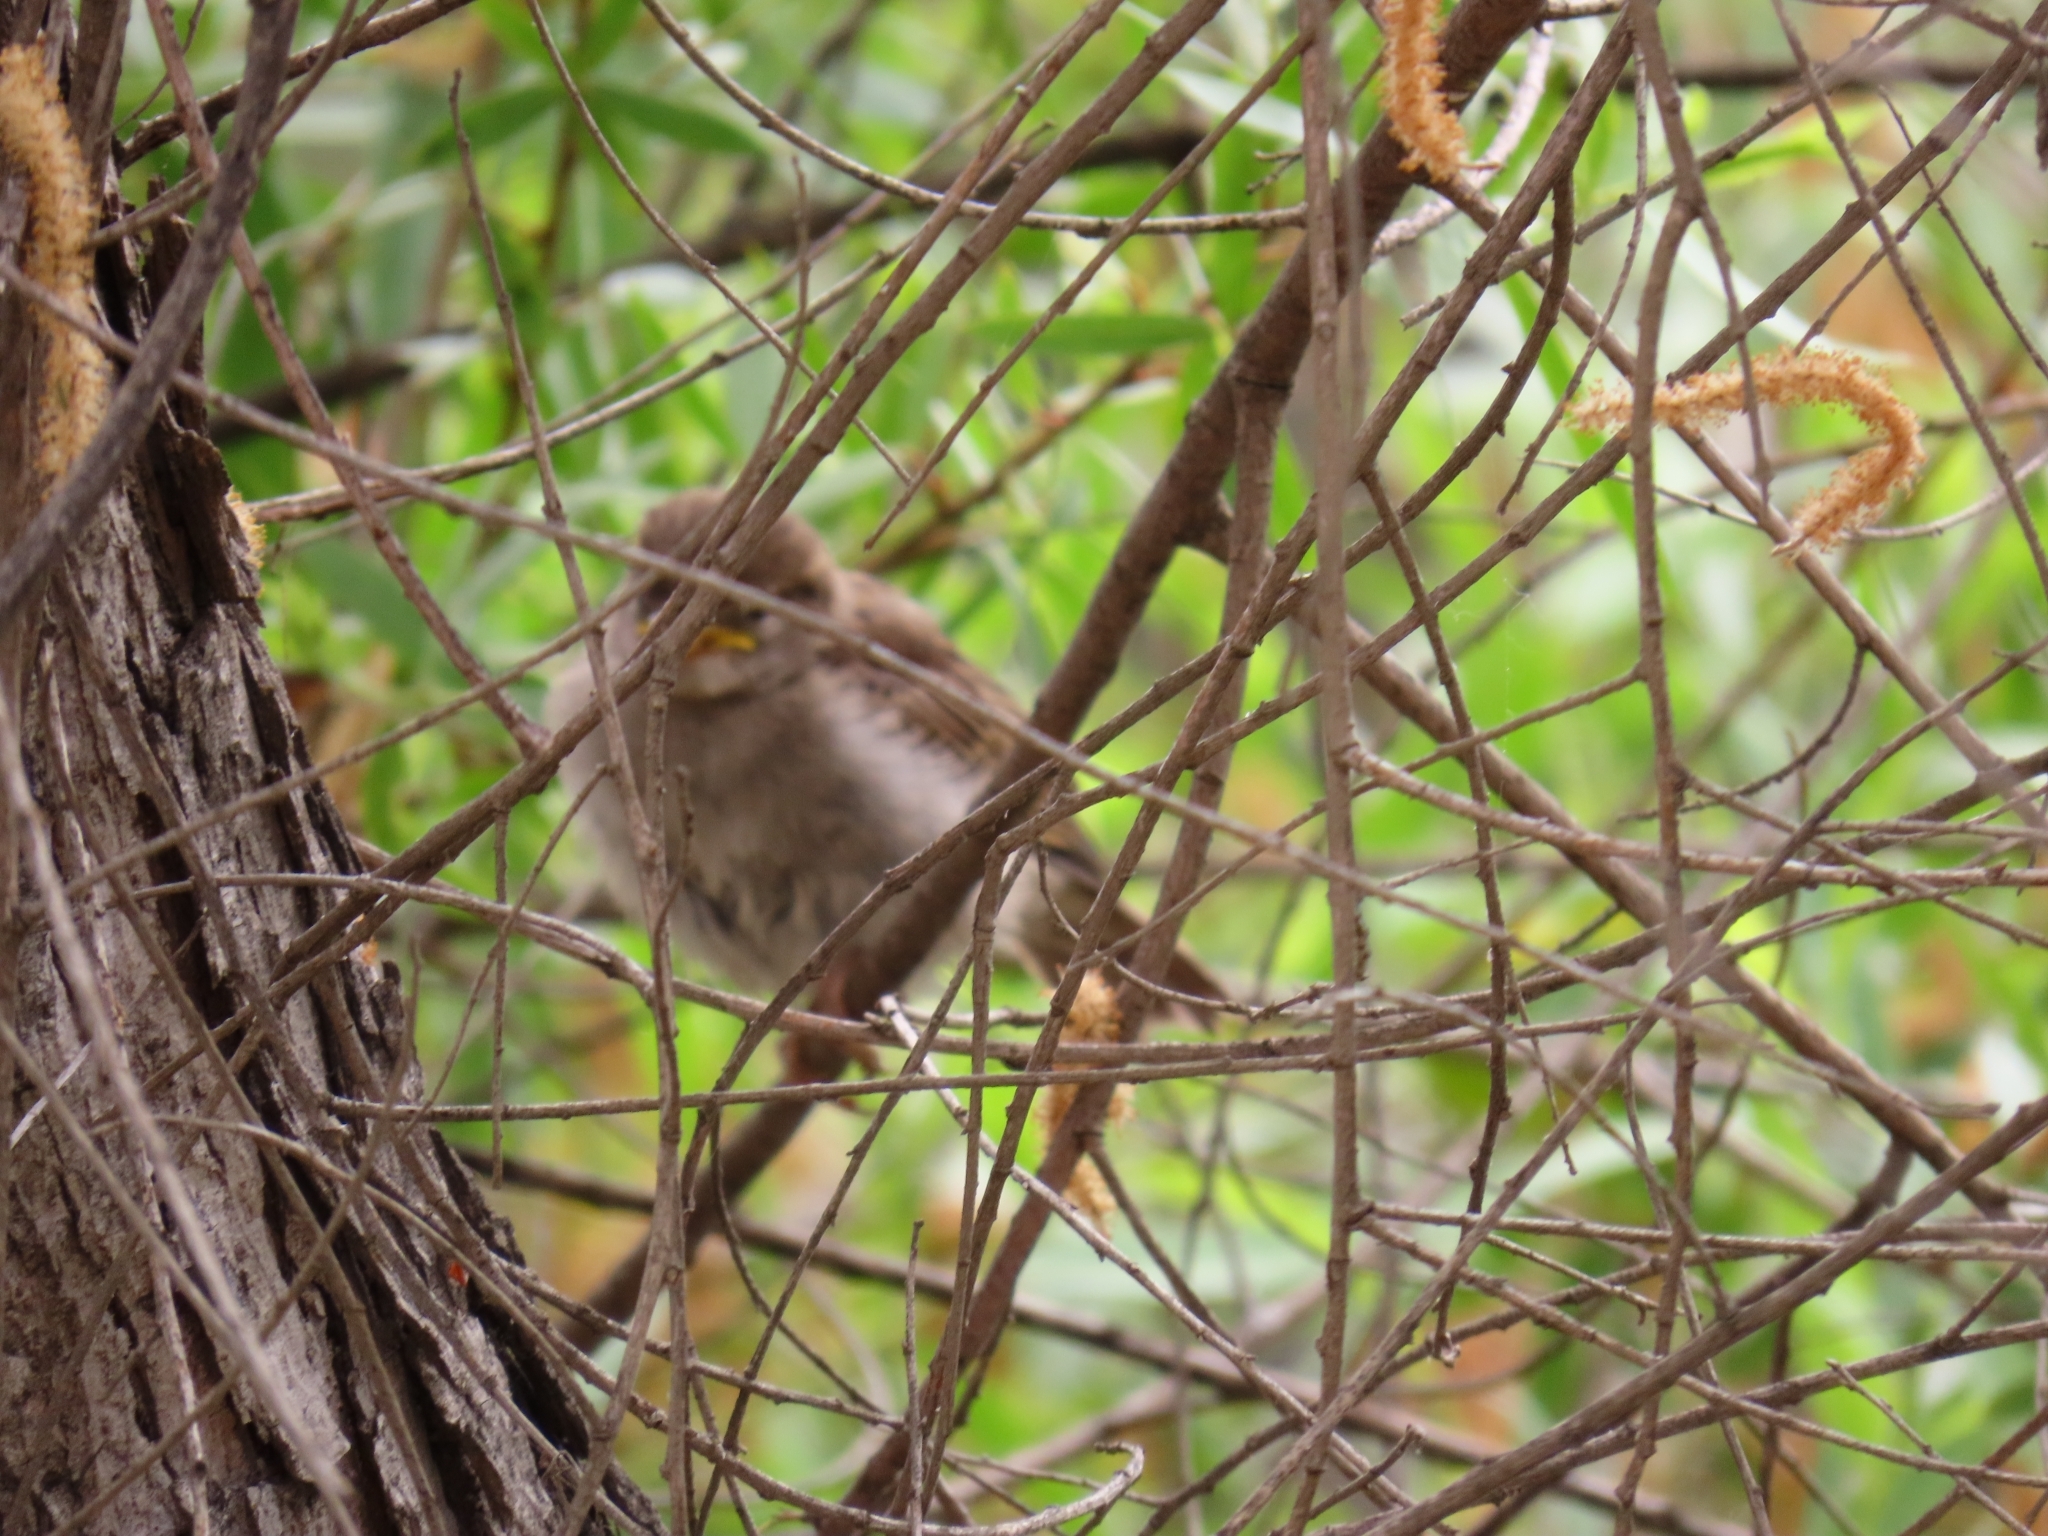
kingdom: Animalia
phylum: Chordata
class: Aves
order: Passeriformes
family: Passeridae
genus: Passer
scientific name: Passer domesticus
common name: House sparrow
